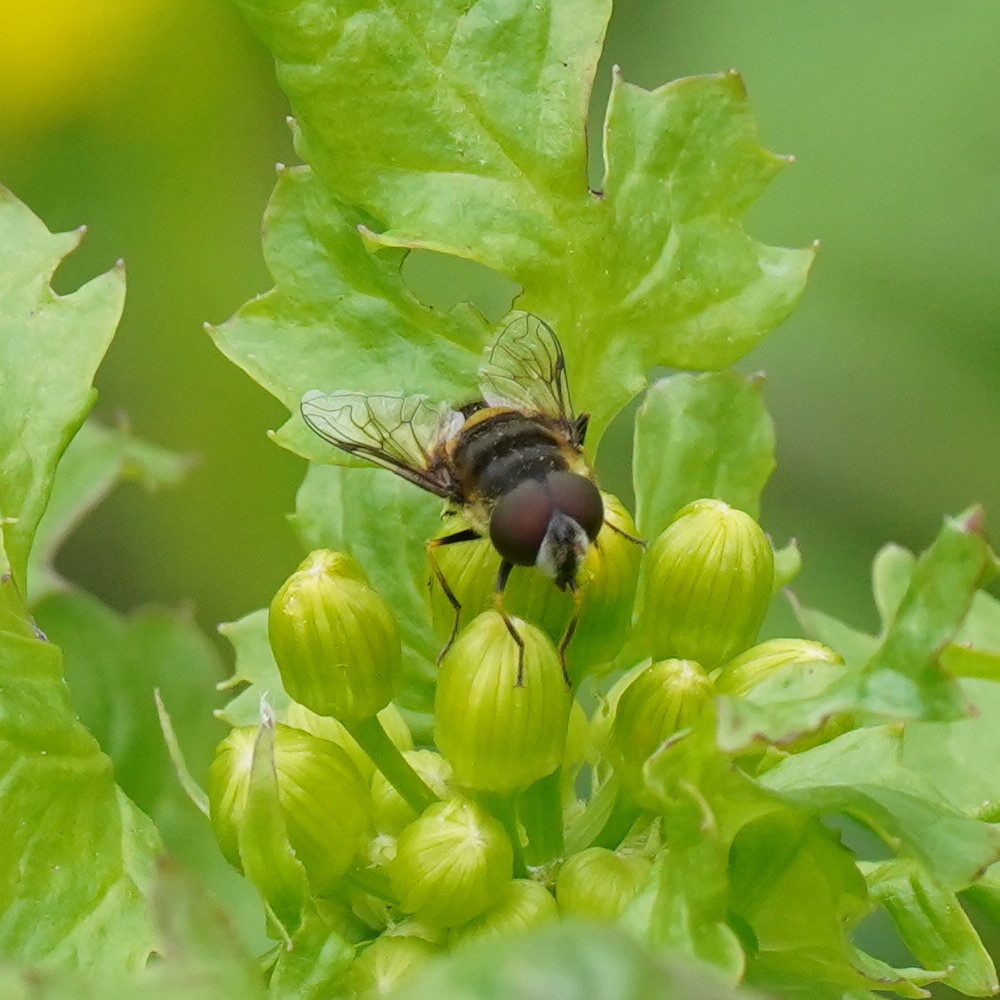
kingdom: Animalia
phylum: Arthropoda
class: Insecta
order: Diptera
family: Syrphidae
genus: Eristalis
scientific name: Eristalis transversa
